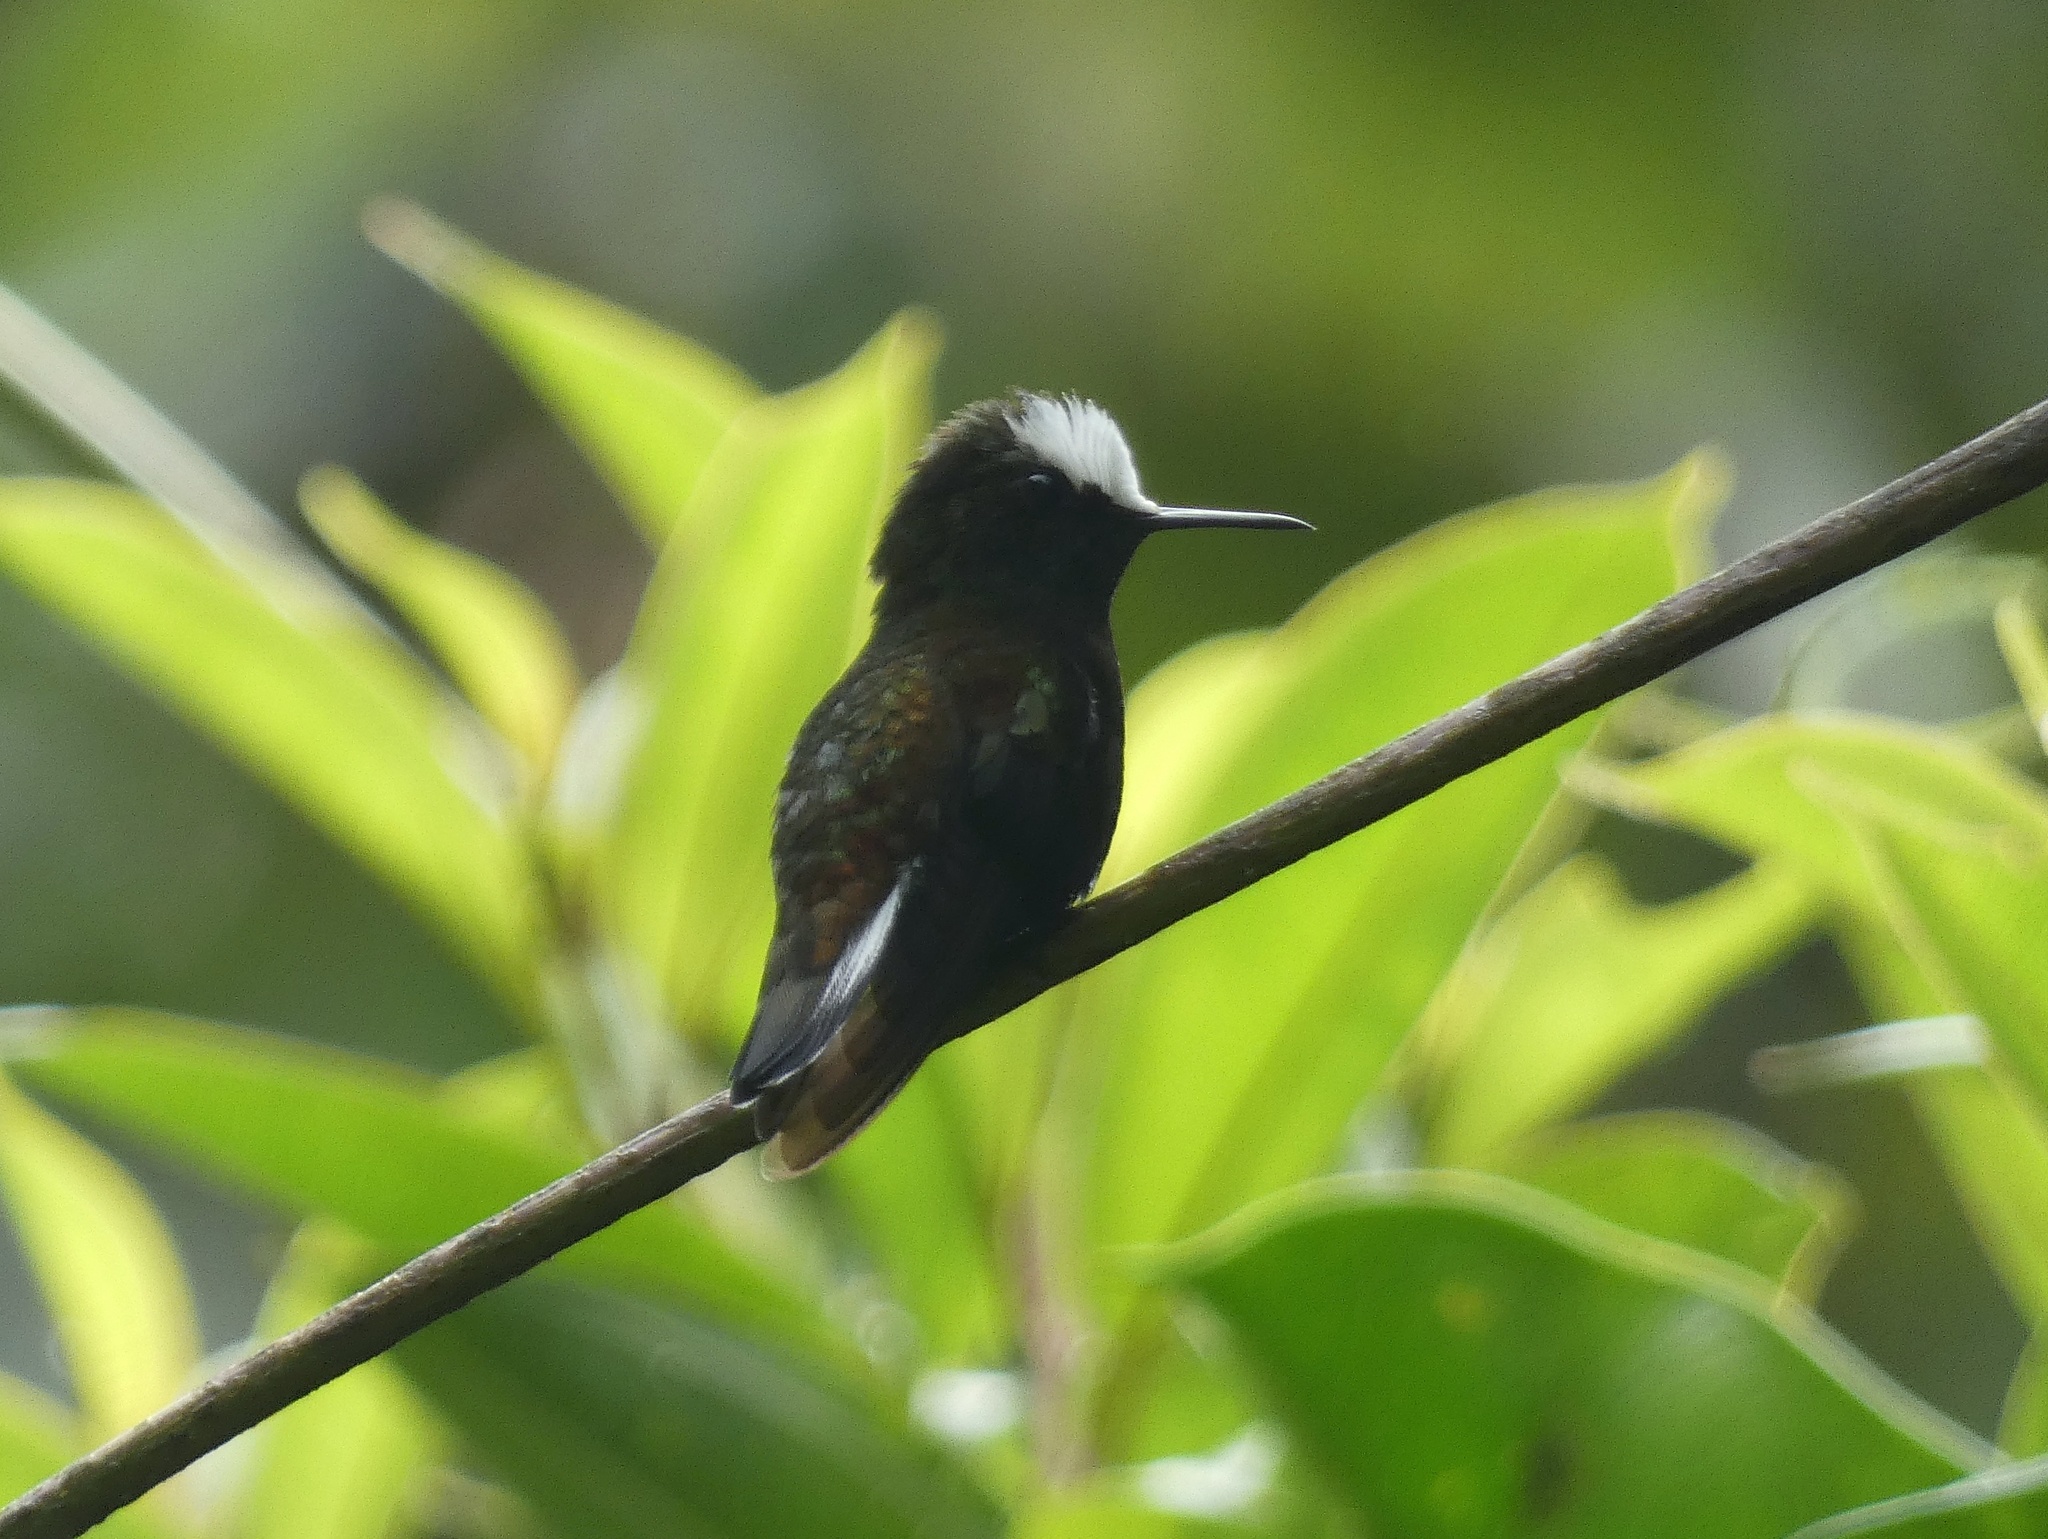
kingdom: Animalia
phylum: Chordata
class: Aves
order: Apodiformes
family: Trochilidae
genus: Microchera
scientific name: Microchera albocoronata
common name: Snowcap
